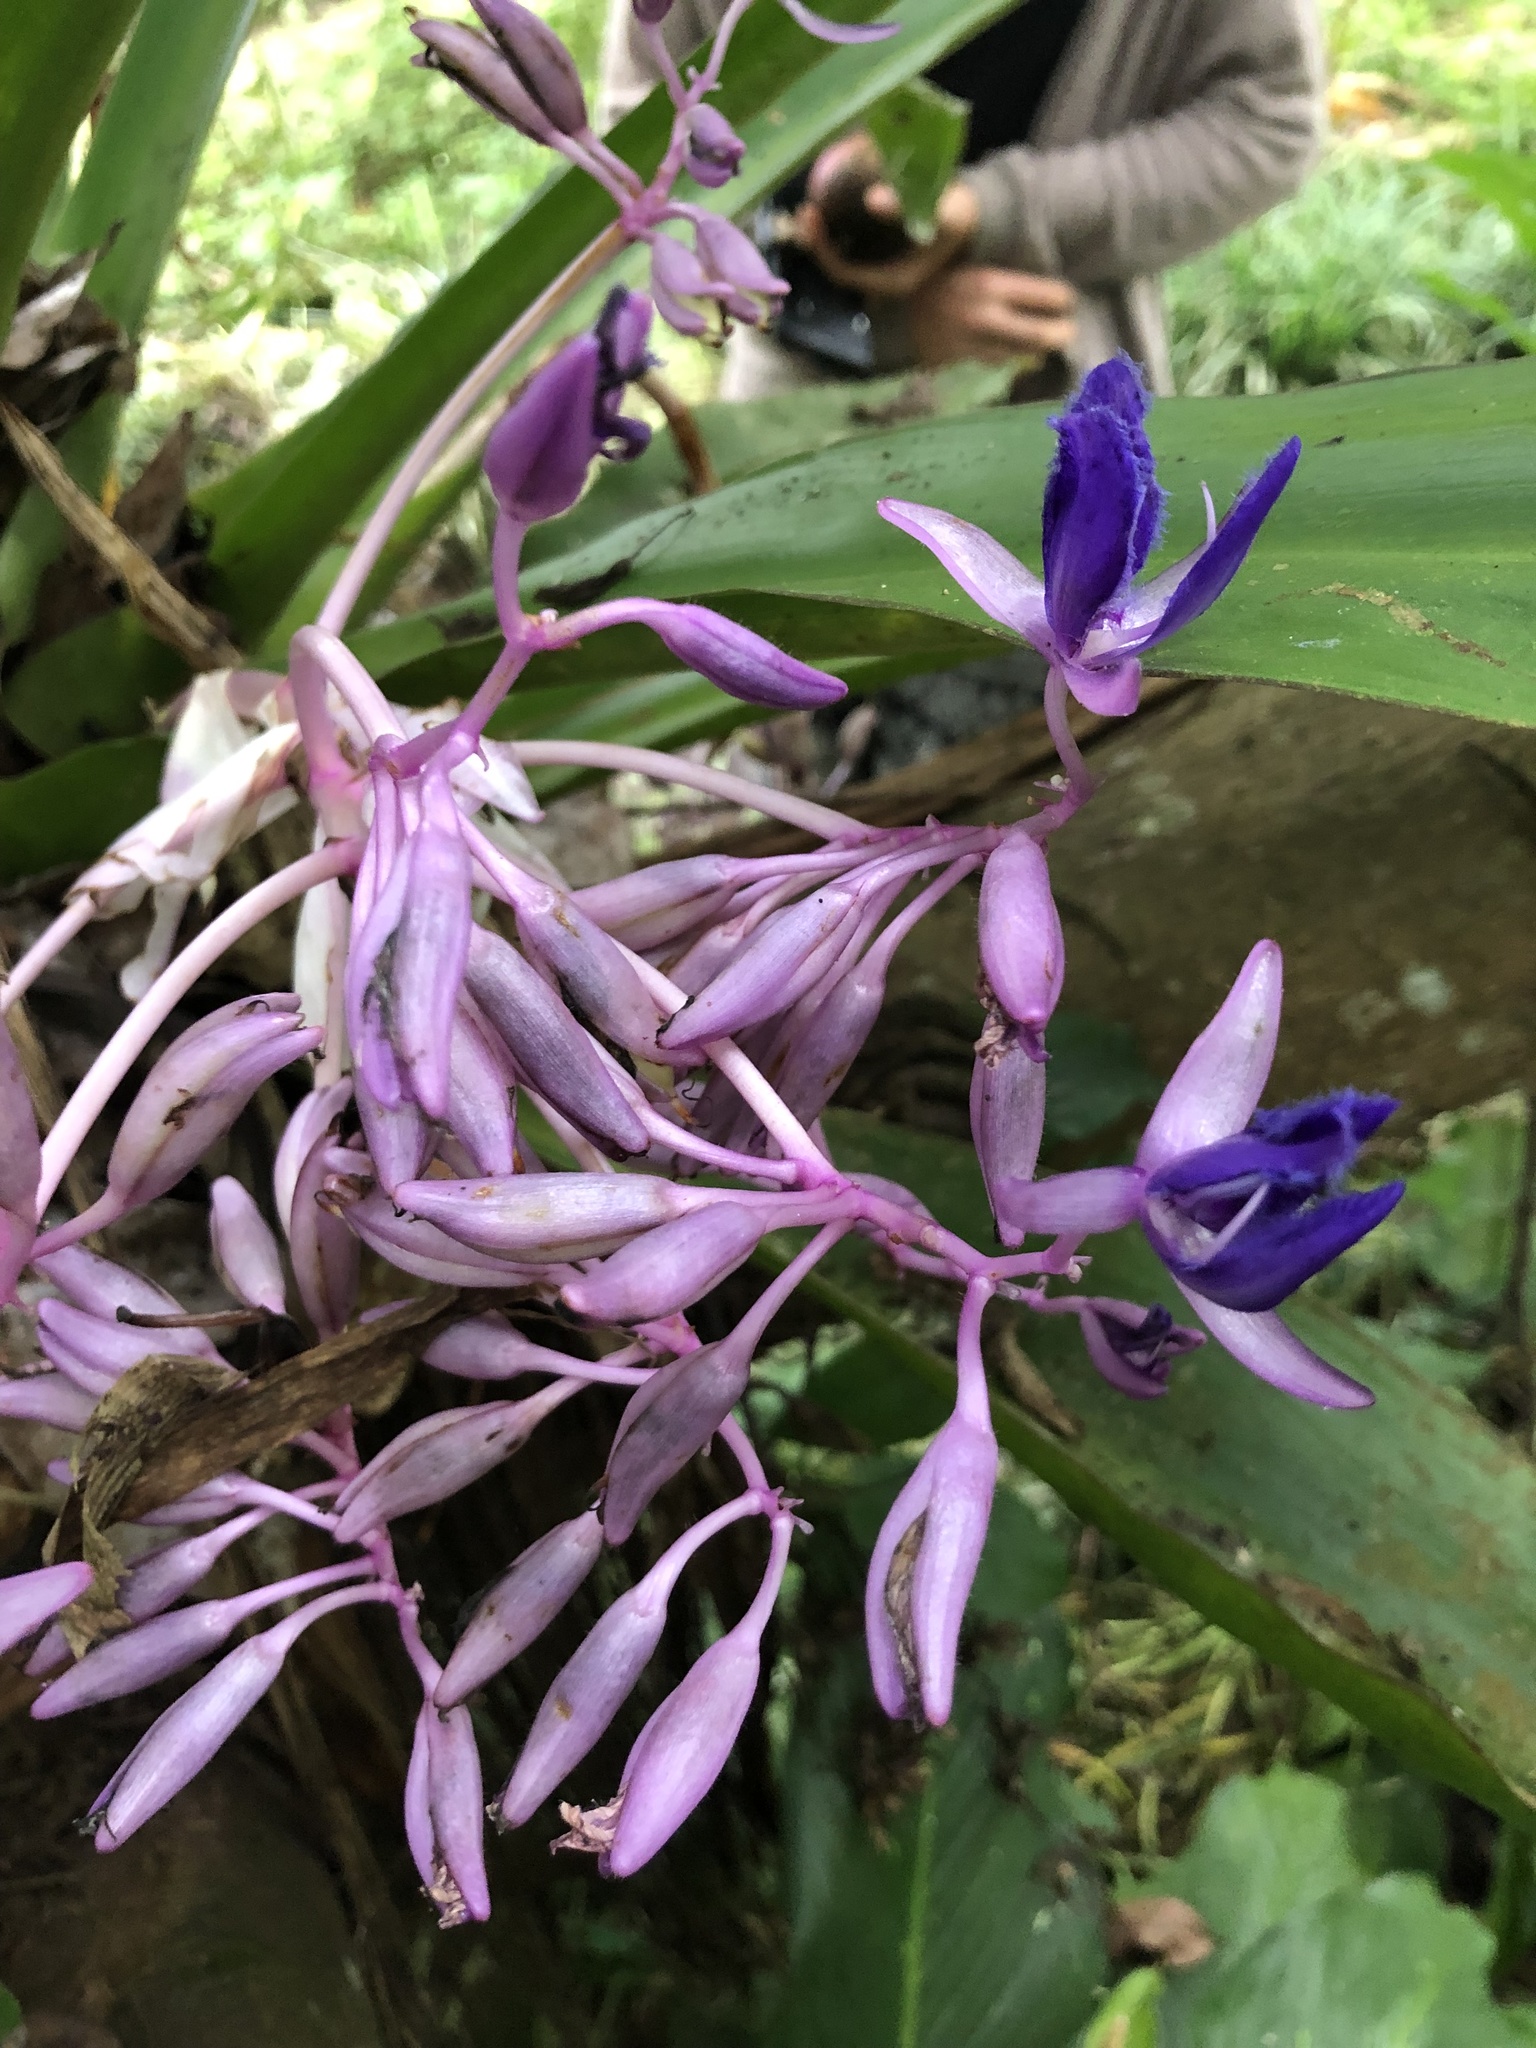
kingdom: Plantae
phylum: Tracheophyta
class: Liliopsida
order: Commelinales
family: Commelinaceae
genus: Cochliostema
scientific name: Cochliostema odoratissimum
